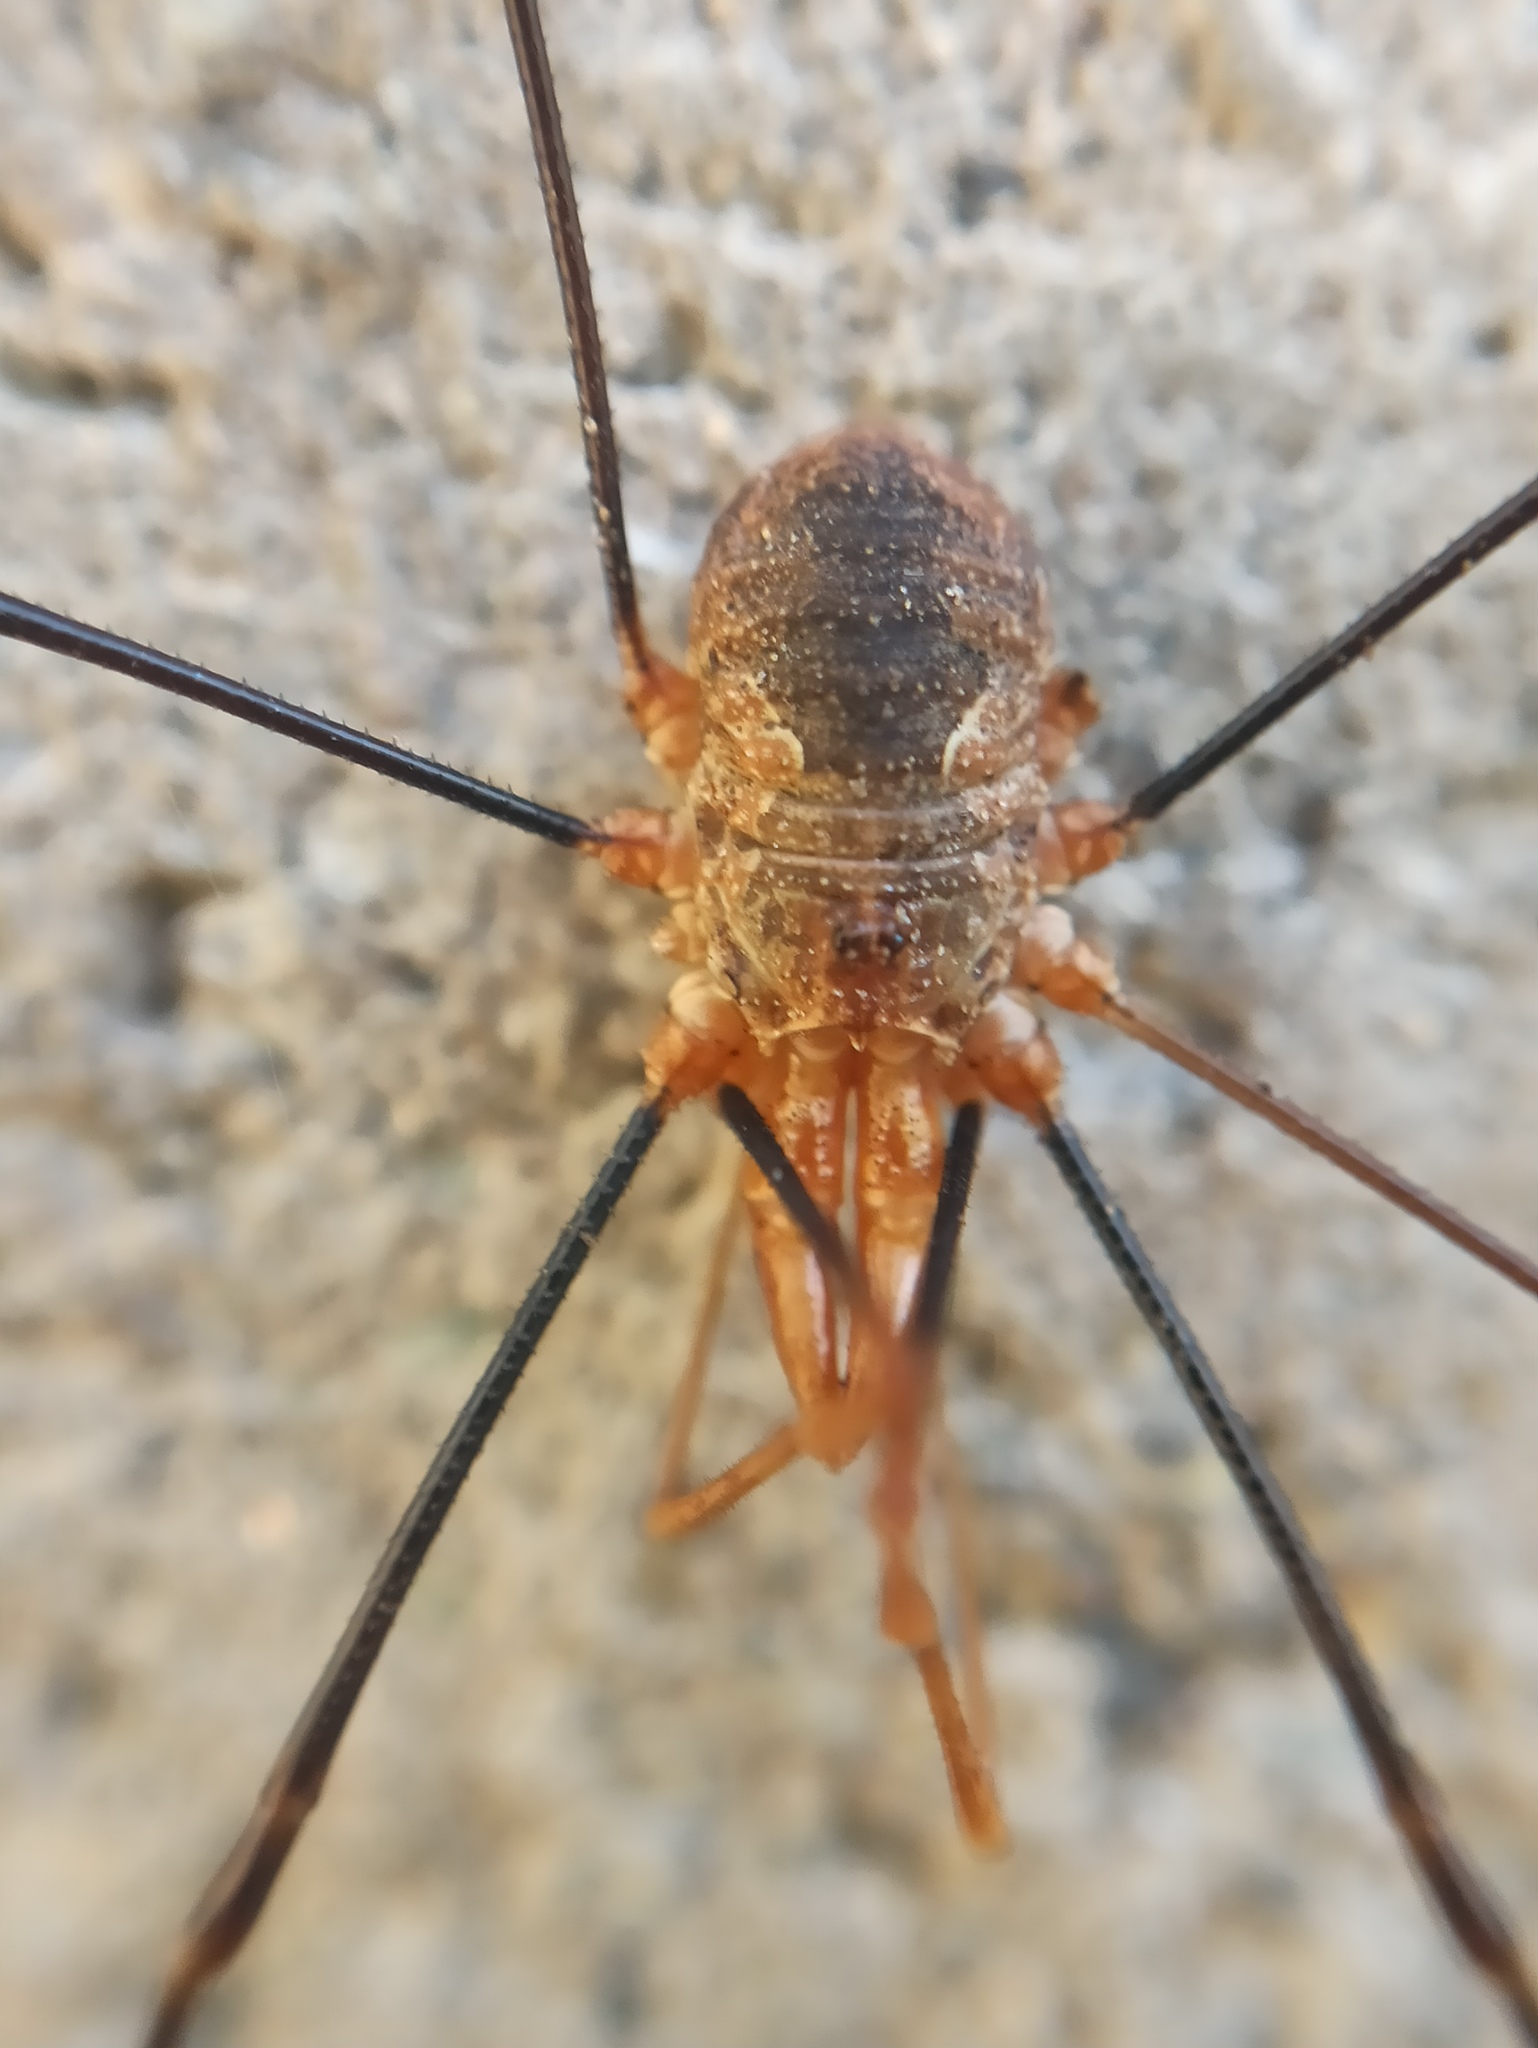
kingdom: Animalia
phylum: Arthropoda
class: Arachnida
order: Opiliones
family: Phalangiidae
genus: Phalangium
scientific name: Phalangium opilio
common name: Daddy longleg
